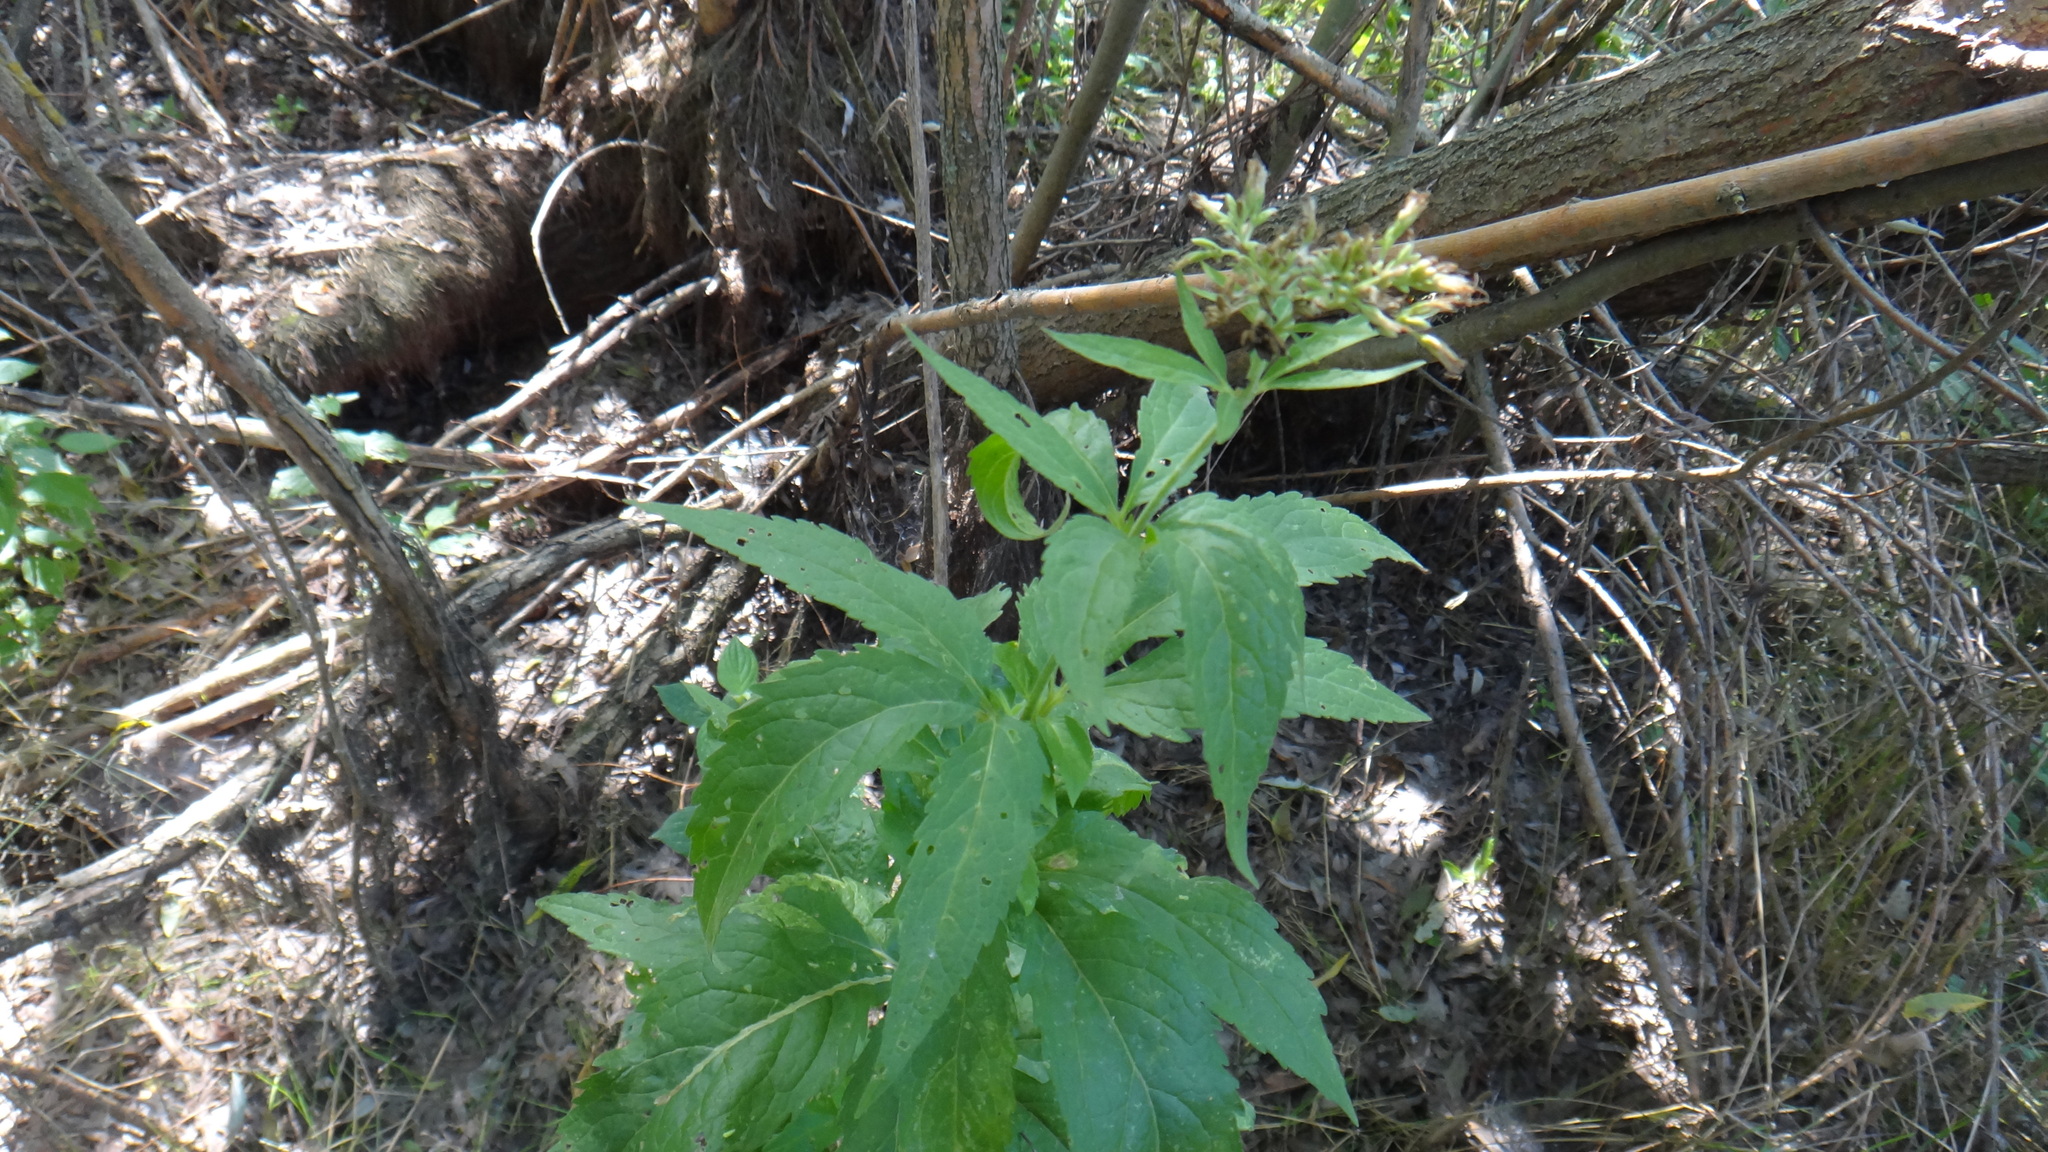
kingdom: Plantae
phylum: Tracheophyta
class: Magnoliopsida
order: Asterales
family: Asteraceae
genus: Eupatorium
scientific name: Eupatorium cannabinum
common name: Hemp-agrimony
